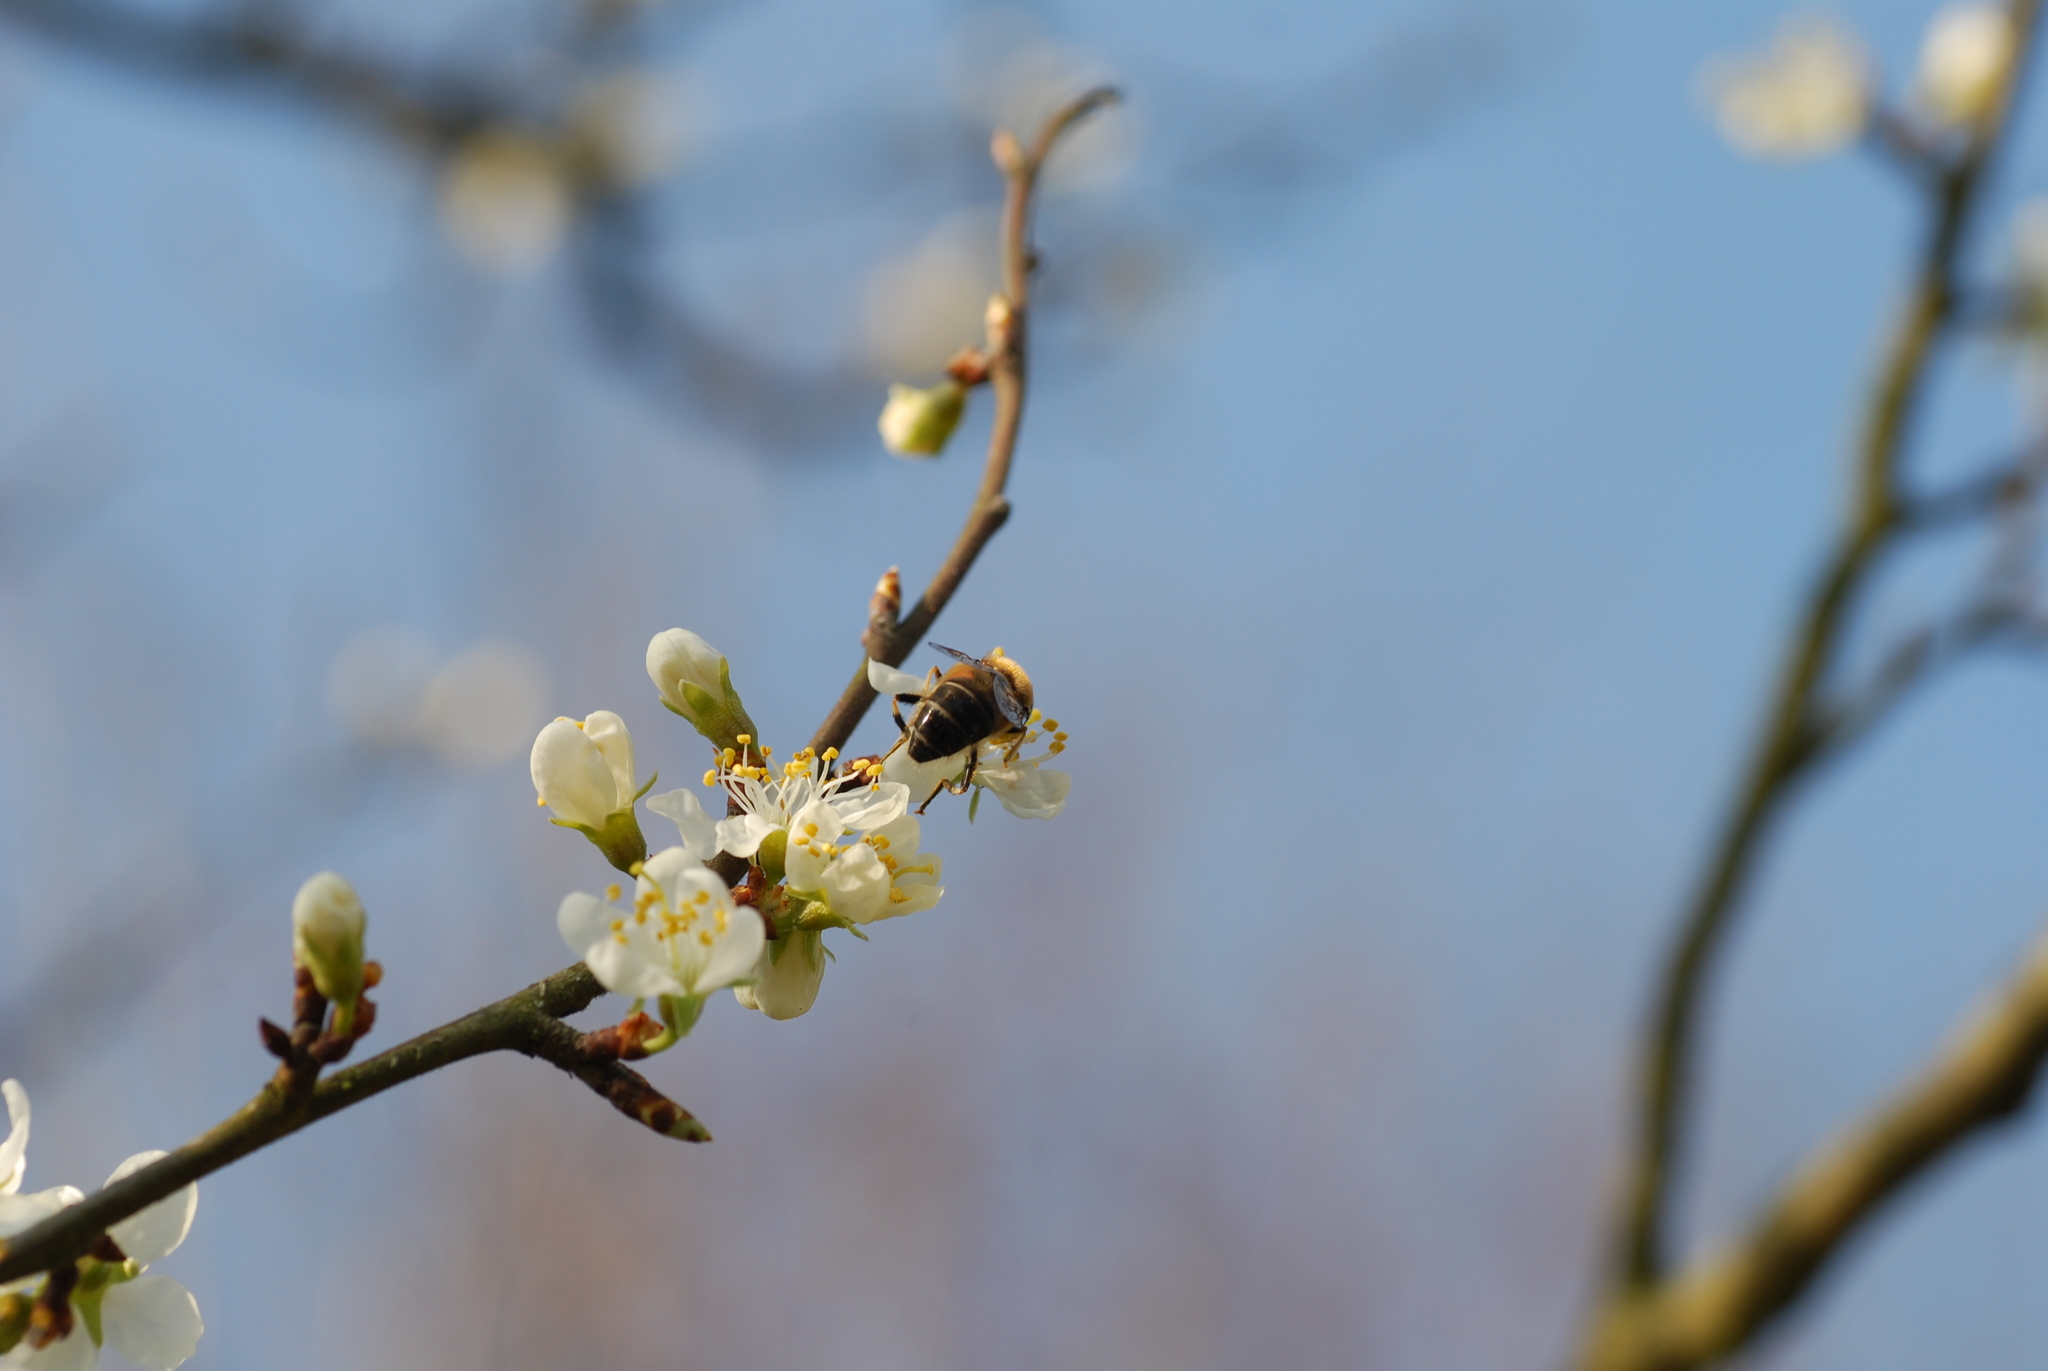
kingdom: Animalia
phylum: Arthropoda
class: Insecta
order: Diptera
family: Syrphidae
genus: Eristalis
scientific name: Eristalis pertinax
